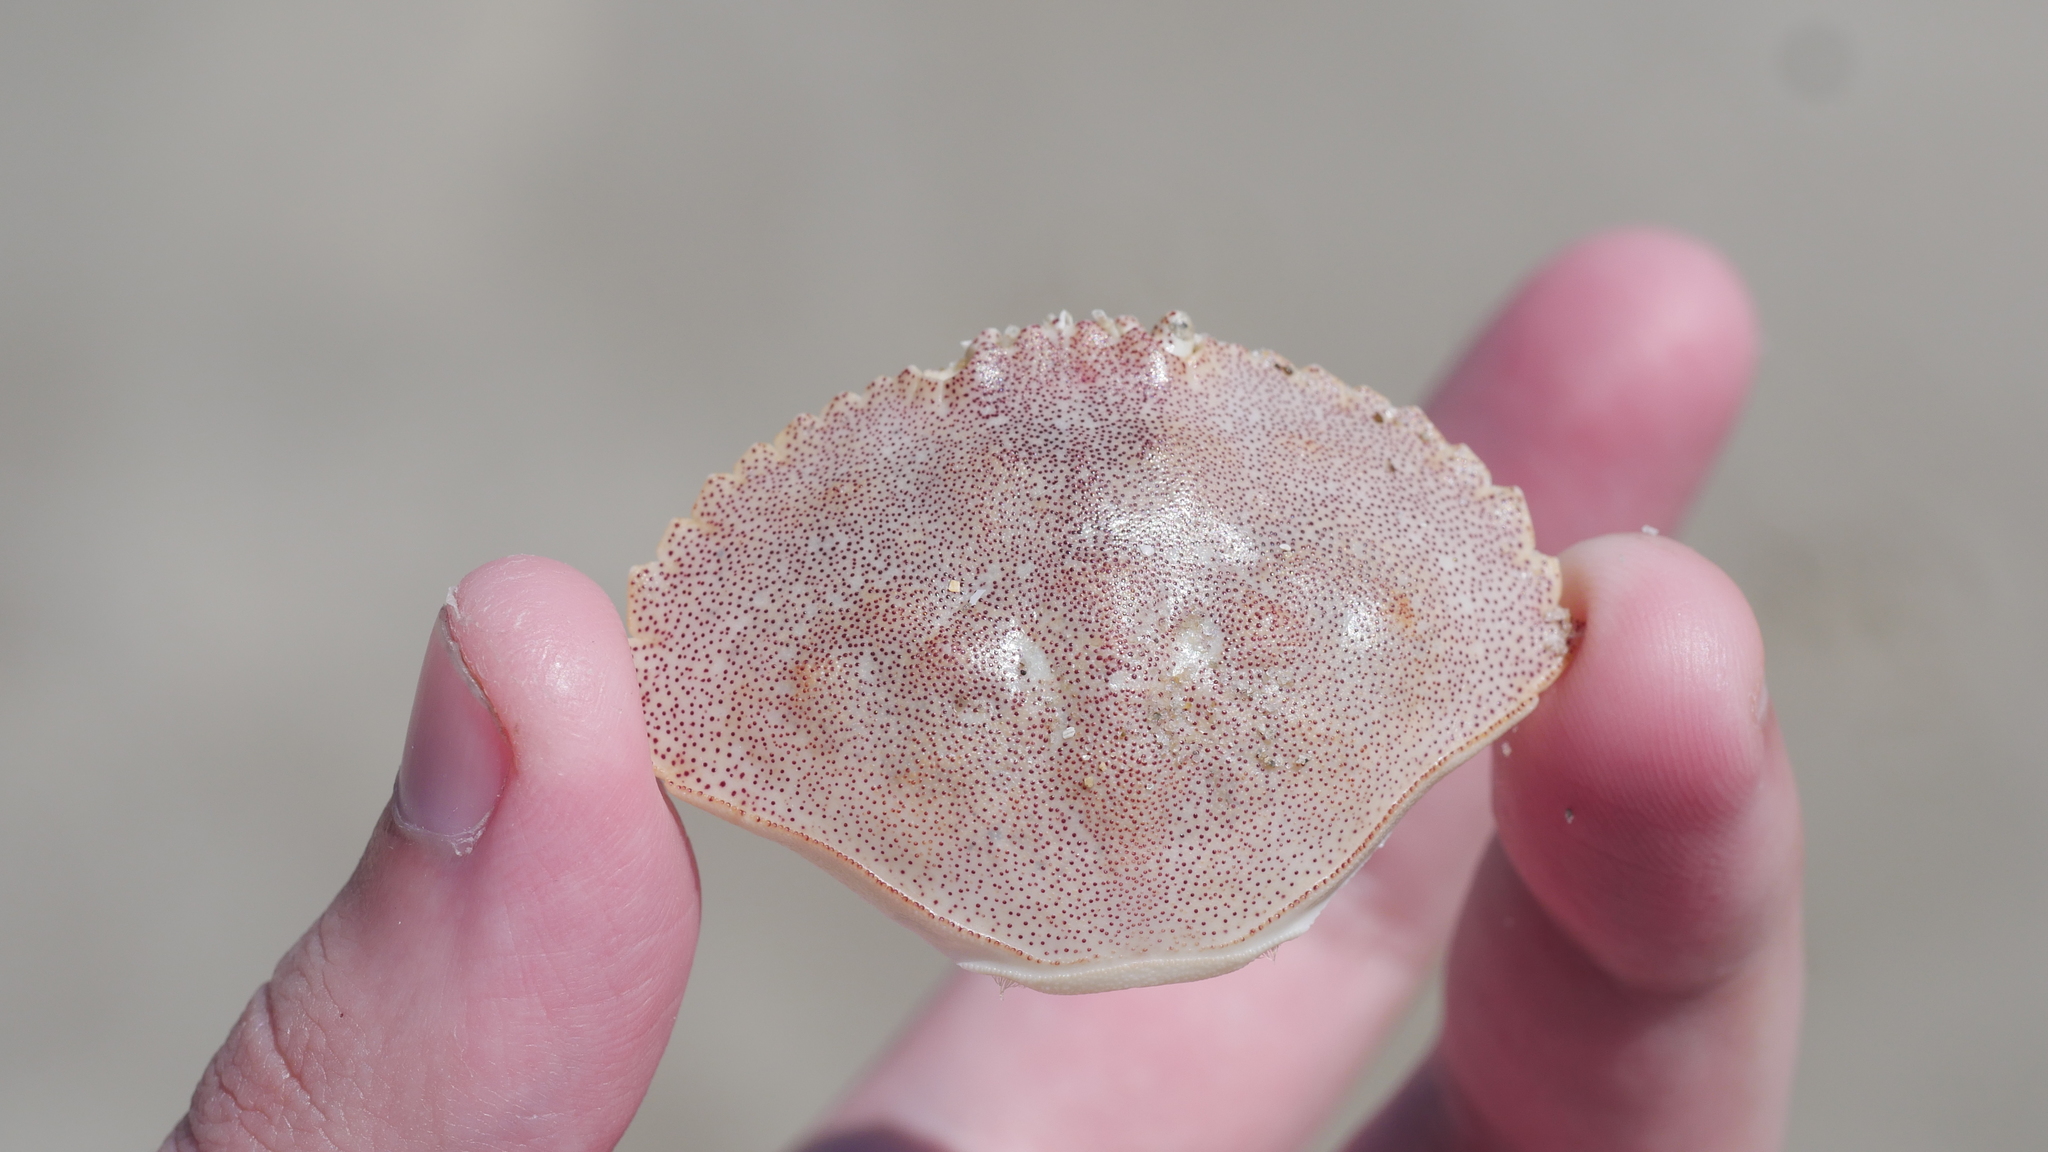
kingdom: Animalia
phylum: Arthropoda
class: Malacostraca
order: Decapoda
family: Cancridae
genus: Cancer
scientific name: Cancer irroratus
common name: Atlantic rock crab
